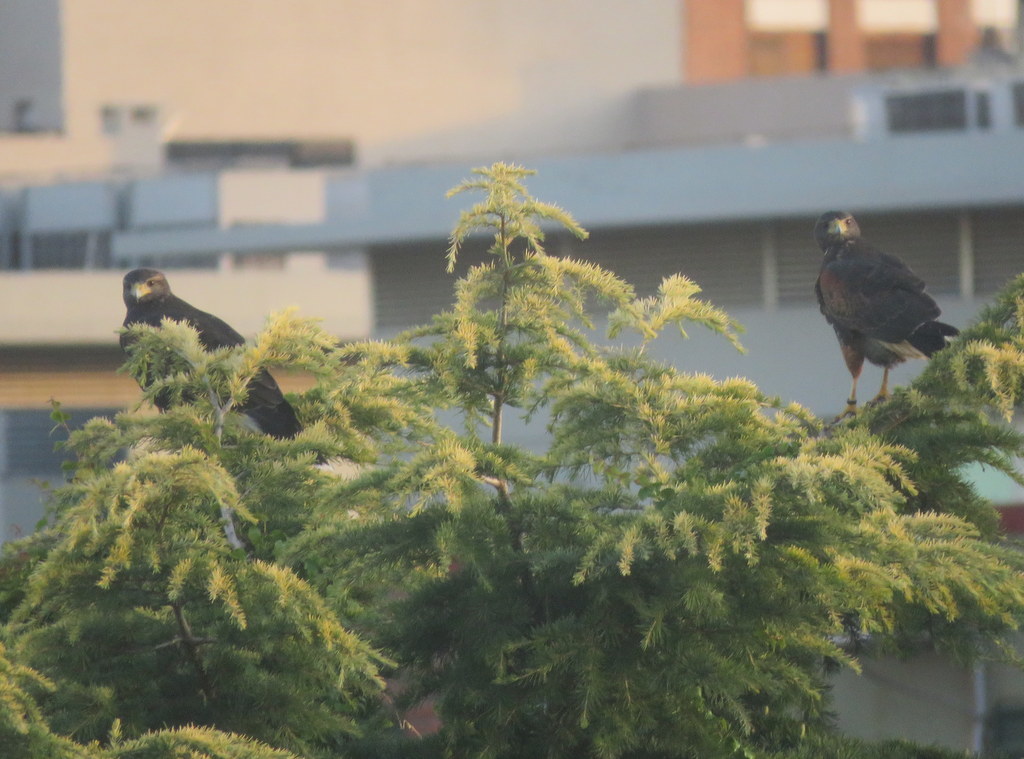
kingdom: Animalia
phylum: Chordata
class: Aves
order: Accipitriformes
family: Accipitridae
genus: Parabuteo
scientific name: Parabuteo unicinctus
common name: Harris's hawk
